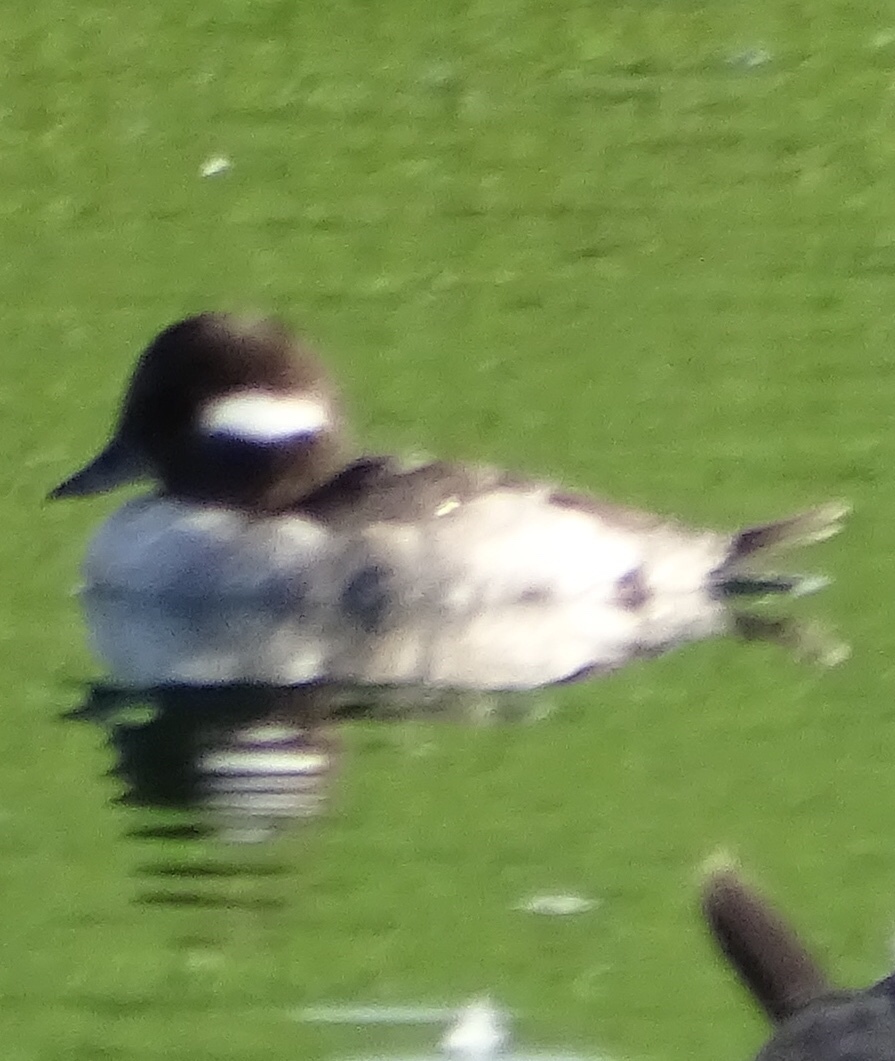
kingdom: Animalia
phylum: Chordata
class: Aves
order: Anseriformes
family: Anatidae
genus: Bucephala
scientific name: Bucephala albeola
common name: Bufflehead
